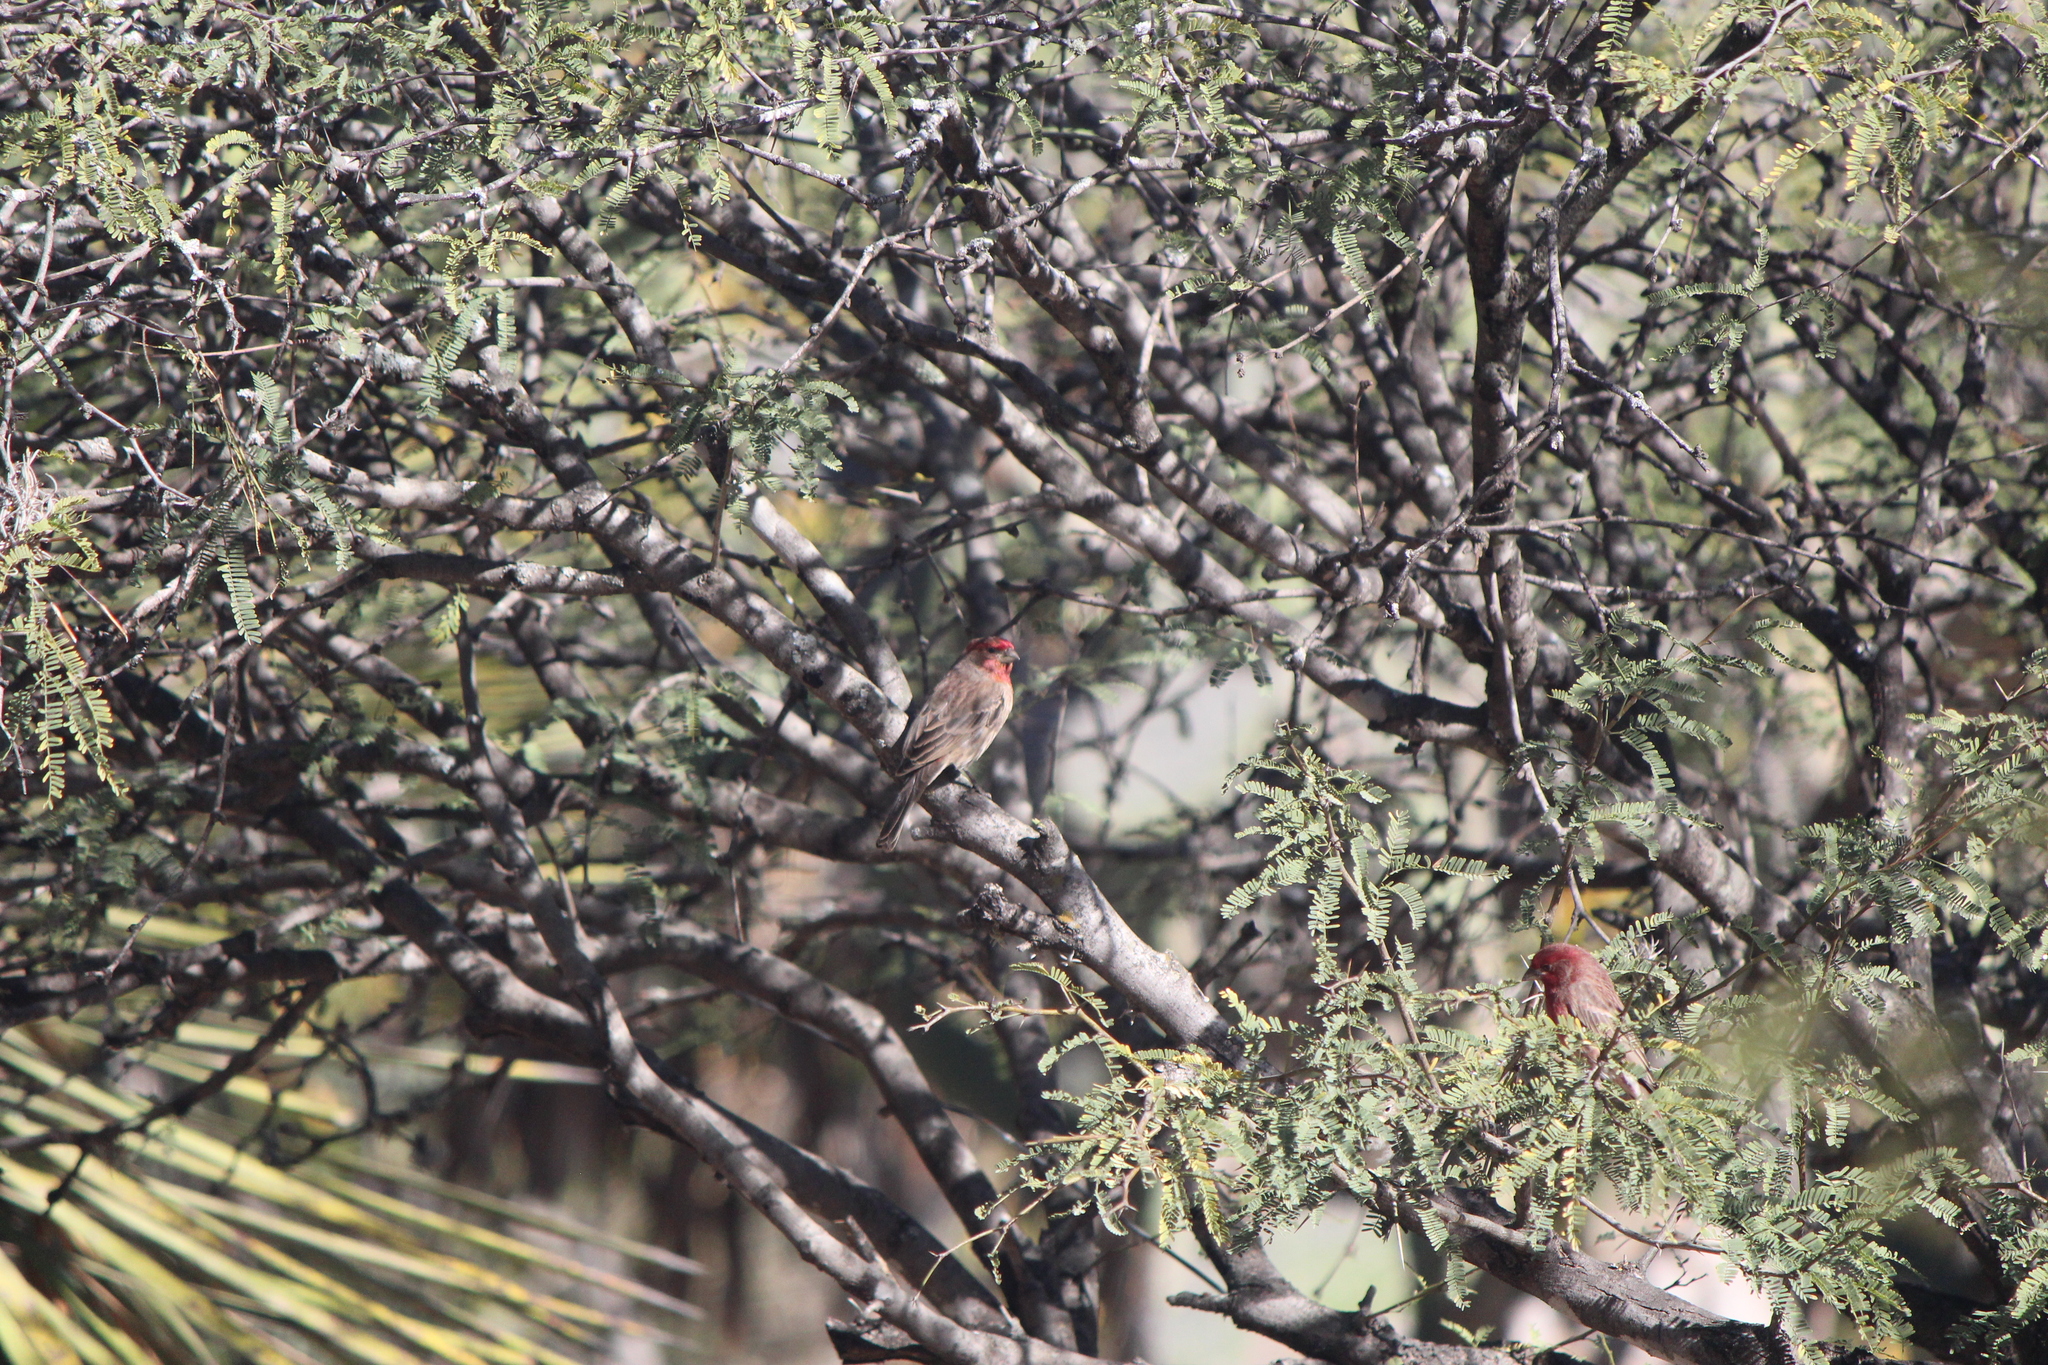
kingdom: Animalia
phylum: Chordata
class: Aves
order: Passeriformes
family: Fringillidae
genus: Haemorhous
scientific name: Haemorhous mexicanus
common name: House finch
